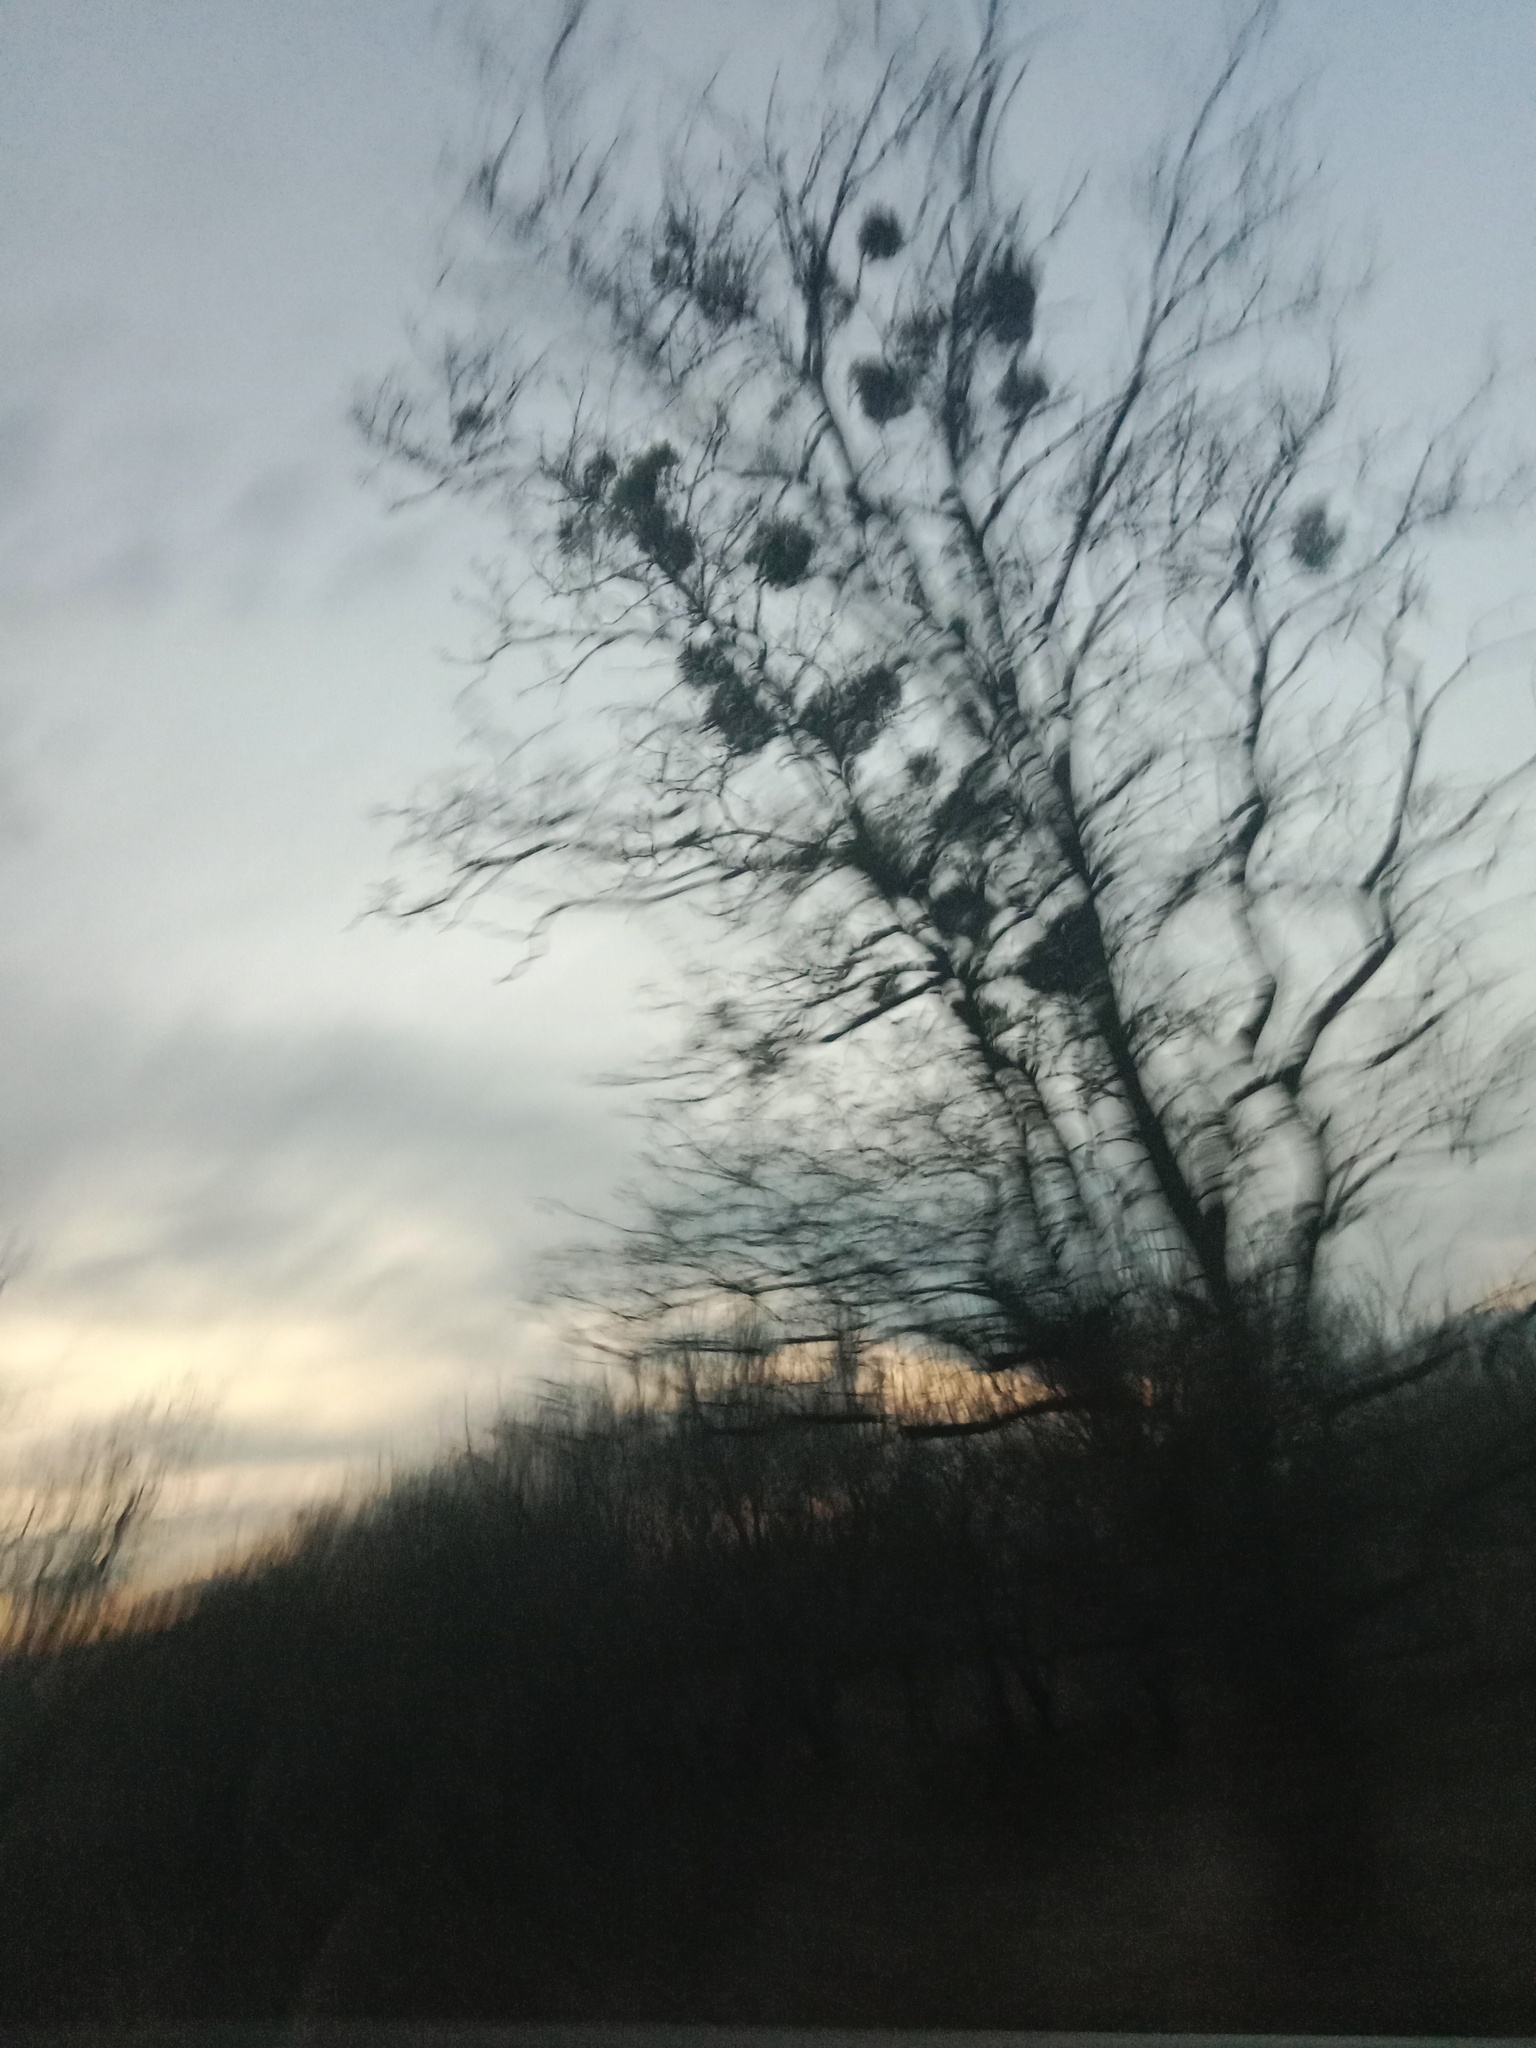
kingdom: Plantae
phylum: Tracheophyta
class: Magnoliopsida
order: Santalales
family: Viscaceae
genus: Viscum
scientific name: Viscum album
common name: Mistletoe
